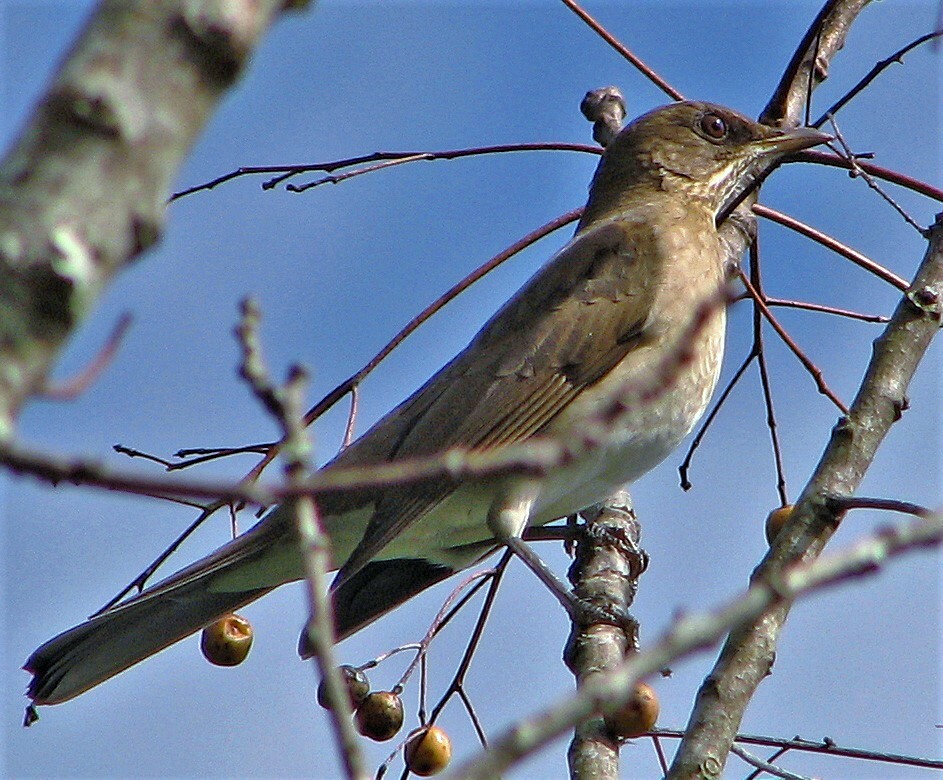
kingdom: Animalia
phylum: Chordata
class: Aves
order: Passeriformes
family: Turdidae
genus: Turdus
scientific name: Turdus amaurochalinus
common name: Creamy-bellied thrush
